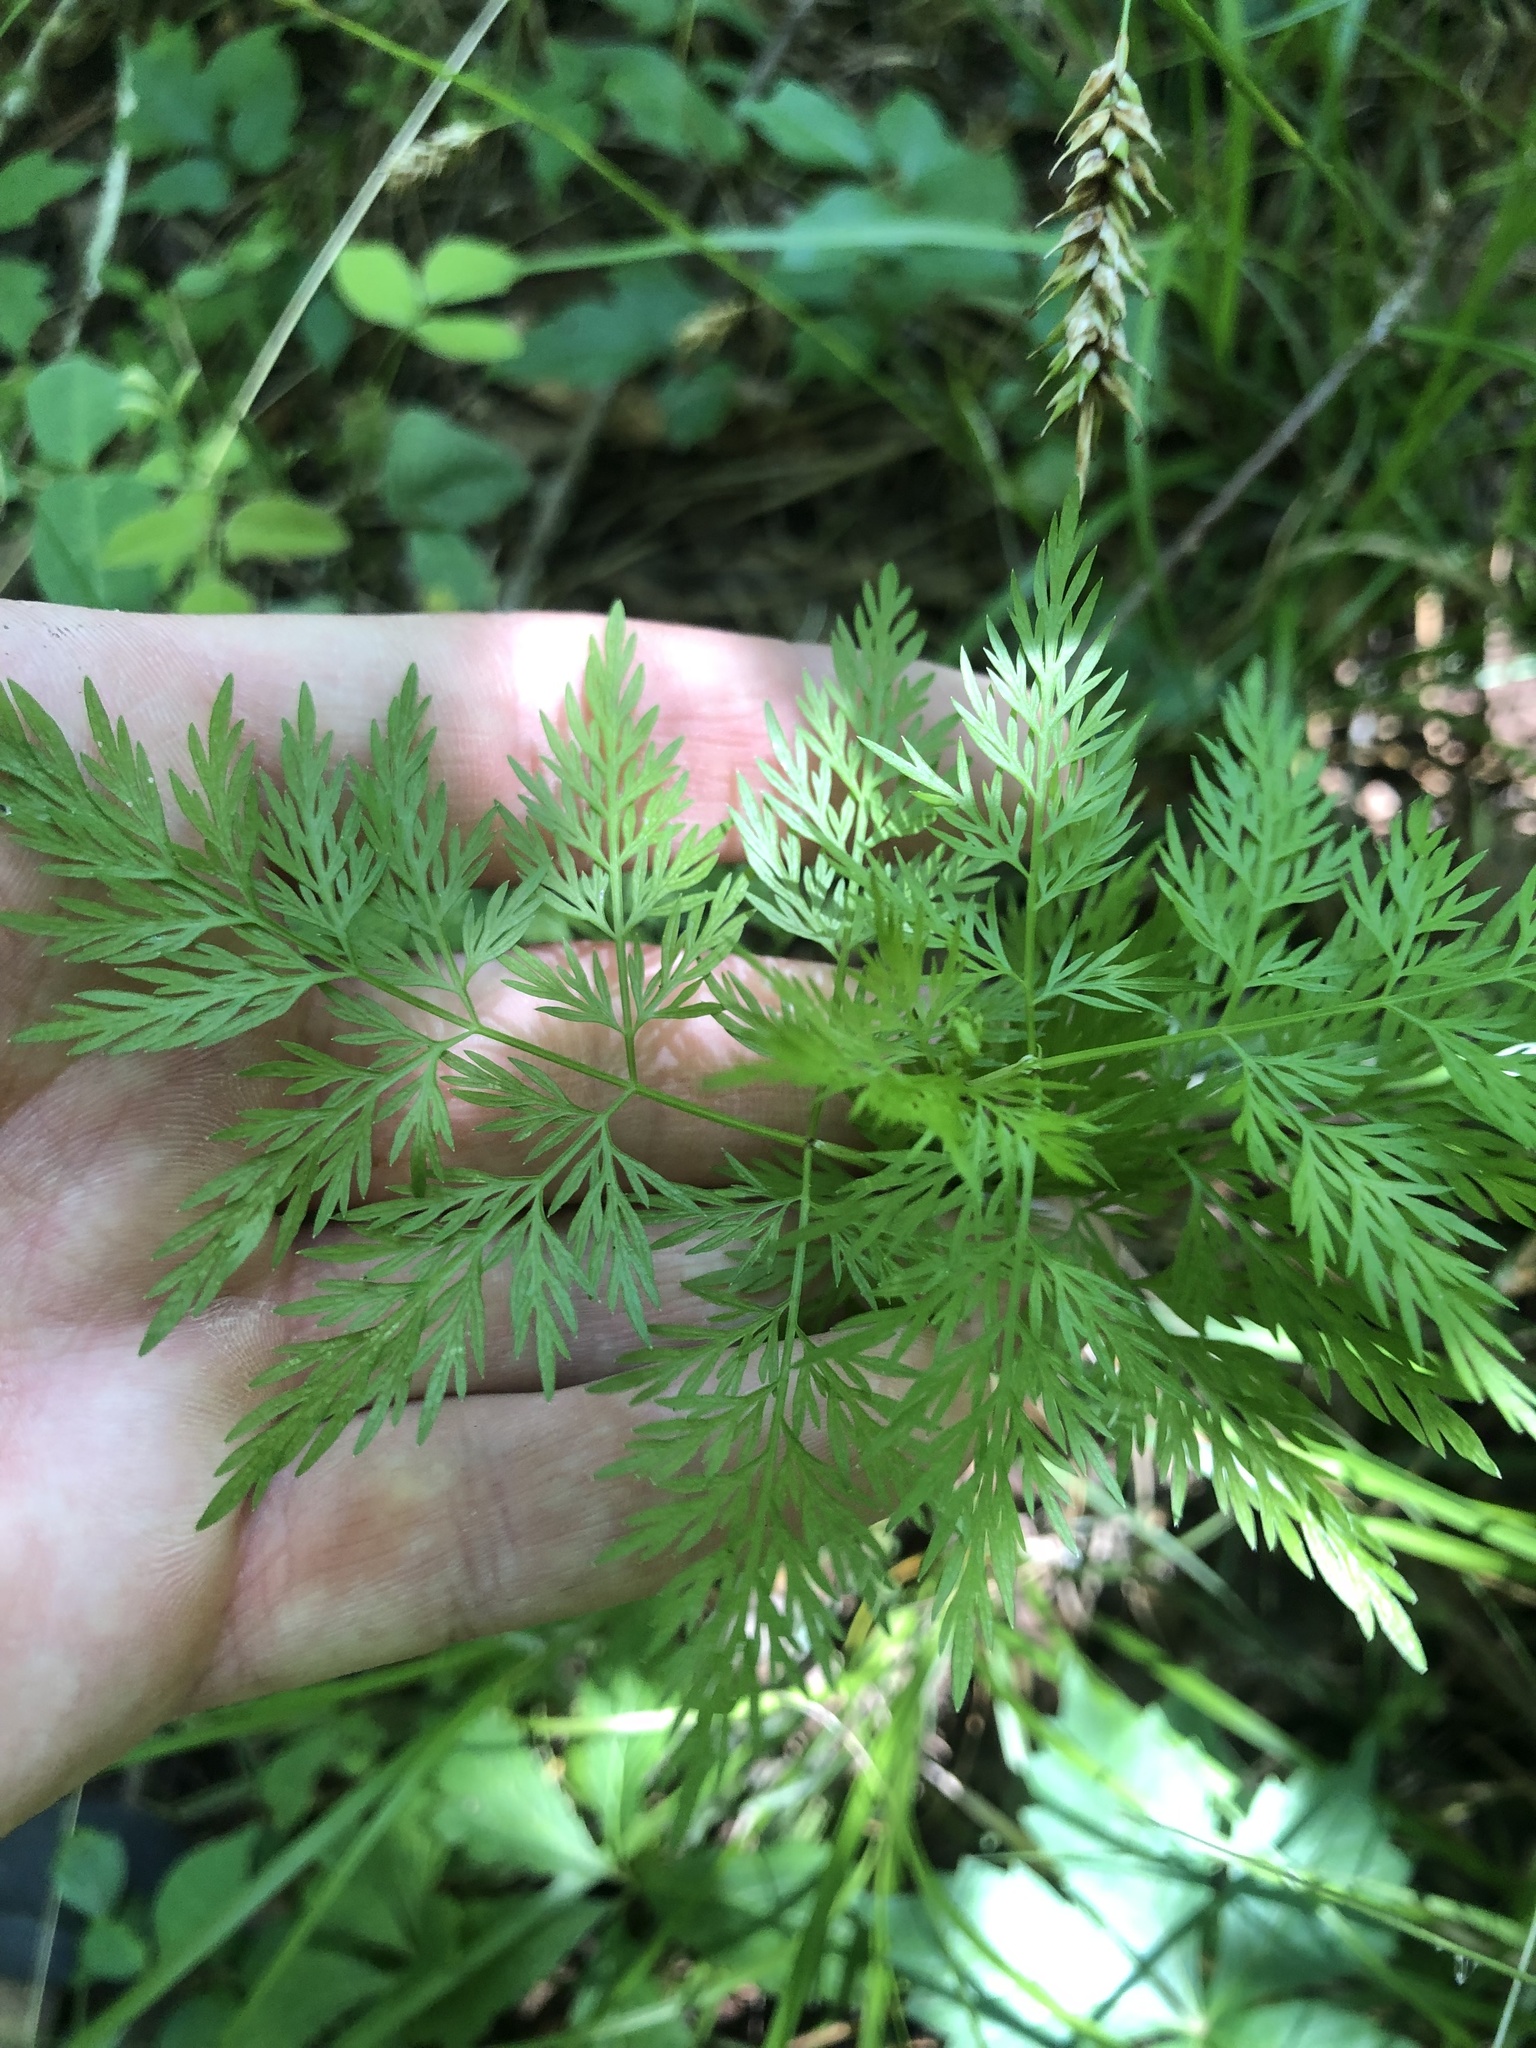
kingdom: Plantae
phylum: Tracheophyta
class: Magnoliopsida
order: Apiales
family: Apiaceae
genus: Trepocarpus
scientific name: Trepocarpus aethusae
